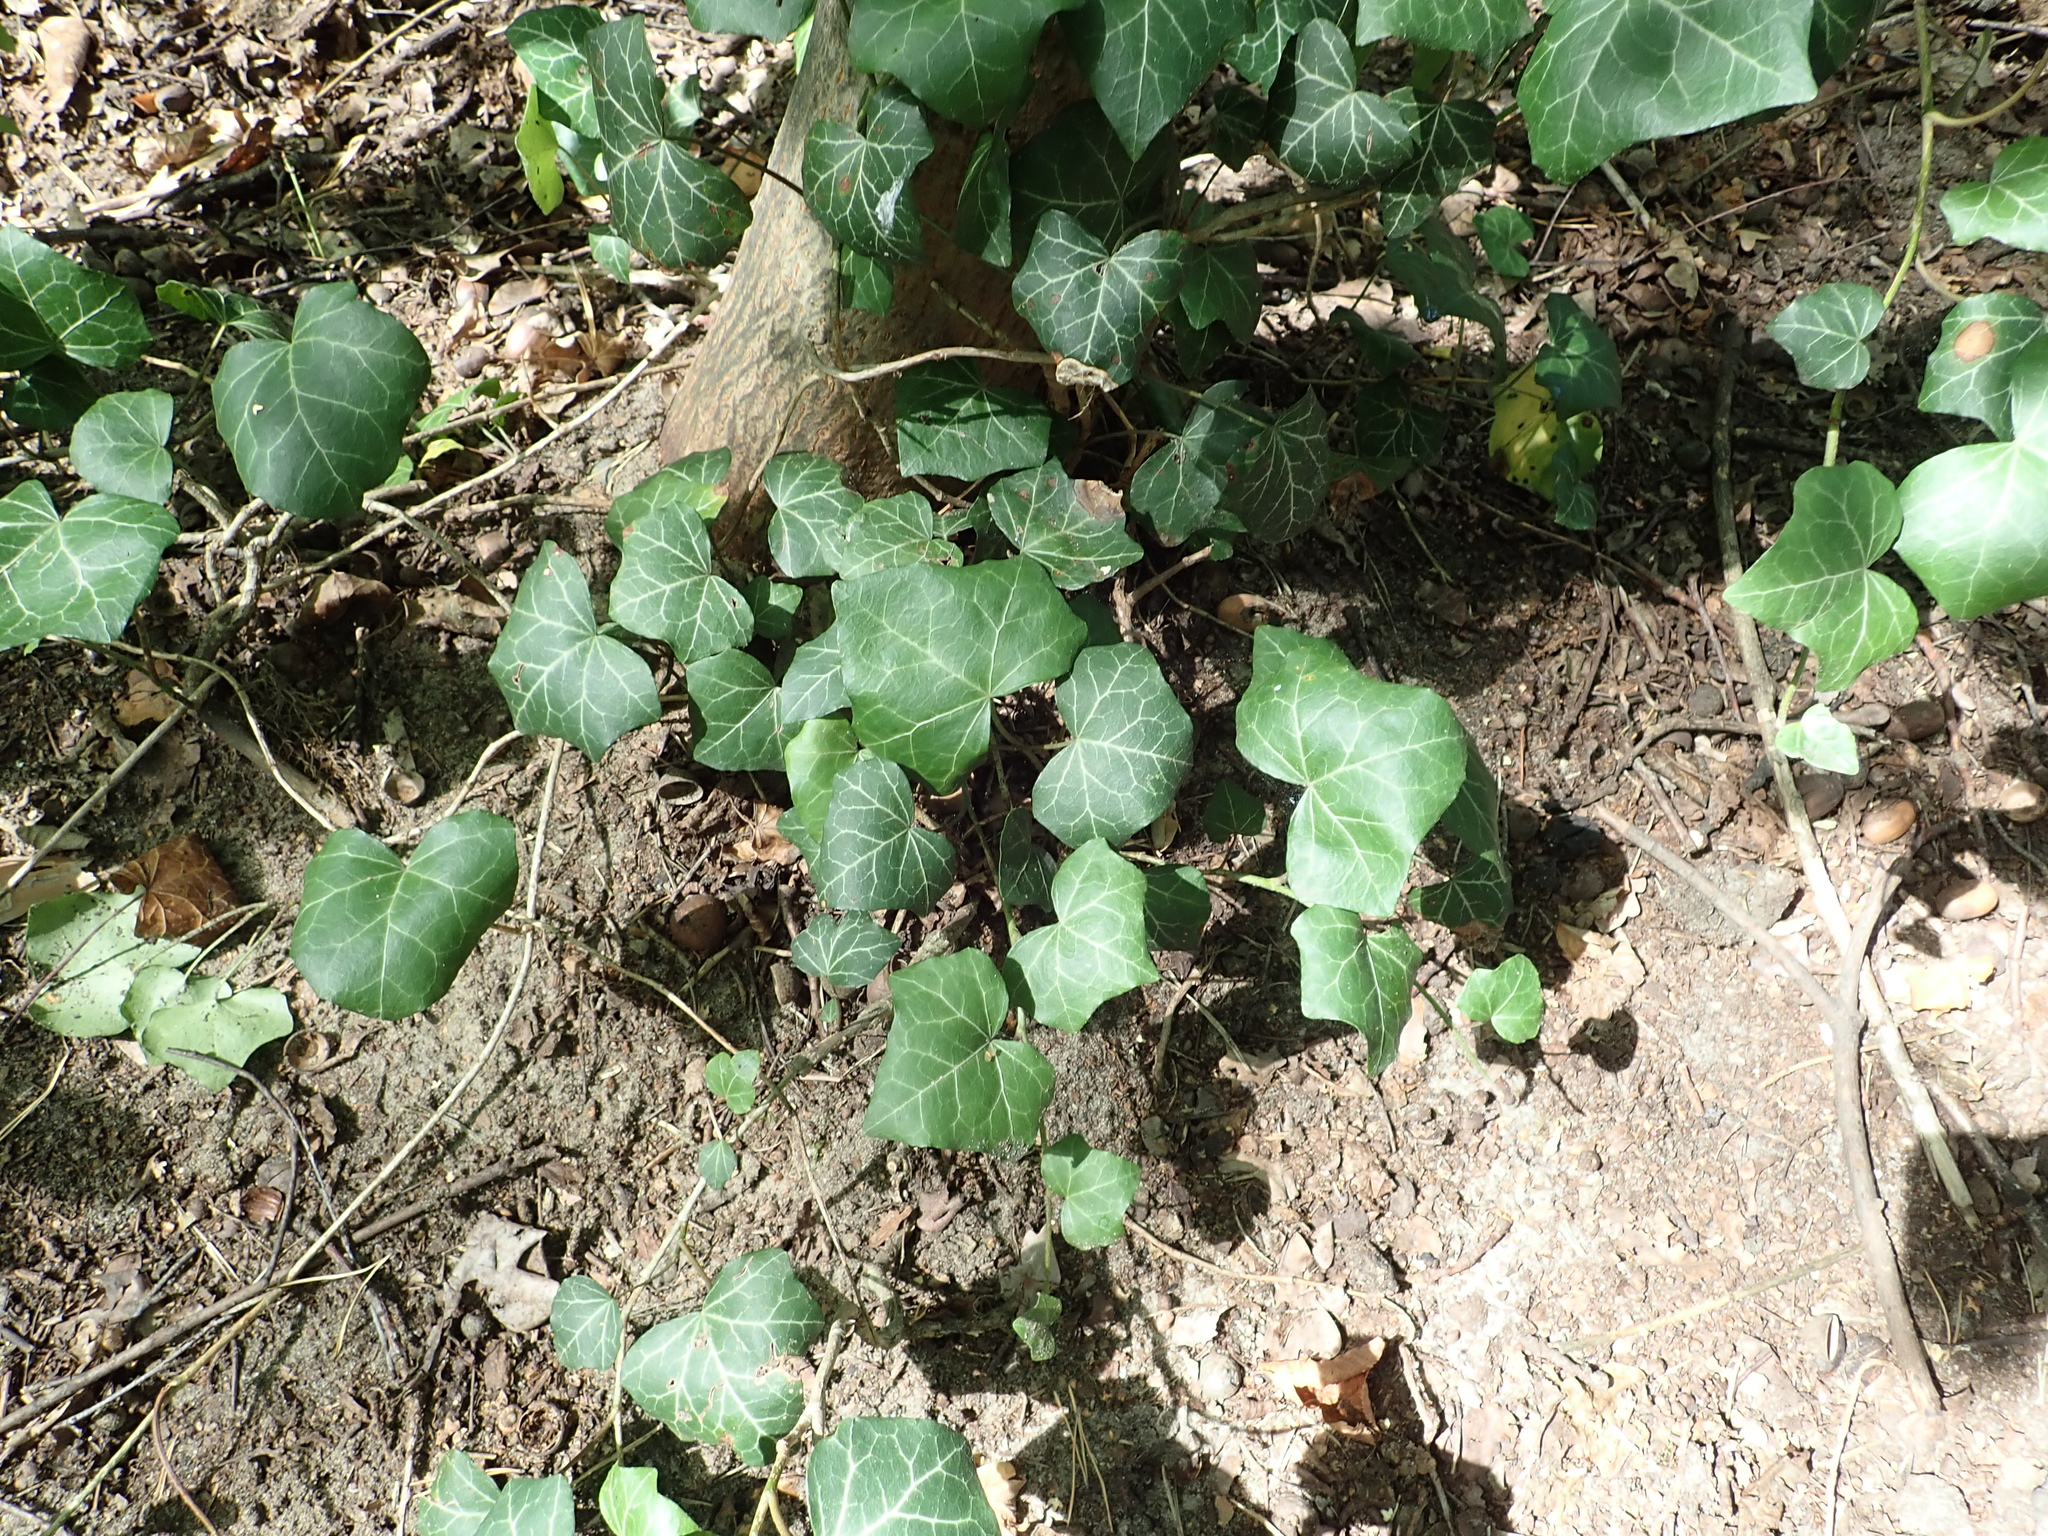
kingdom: Plantae
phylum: Tracheophyta
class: Magnoliopsida
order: Apiales
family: Araliaceae
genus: Hedera
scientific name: Hedera helix
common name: Ivy
